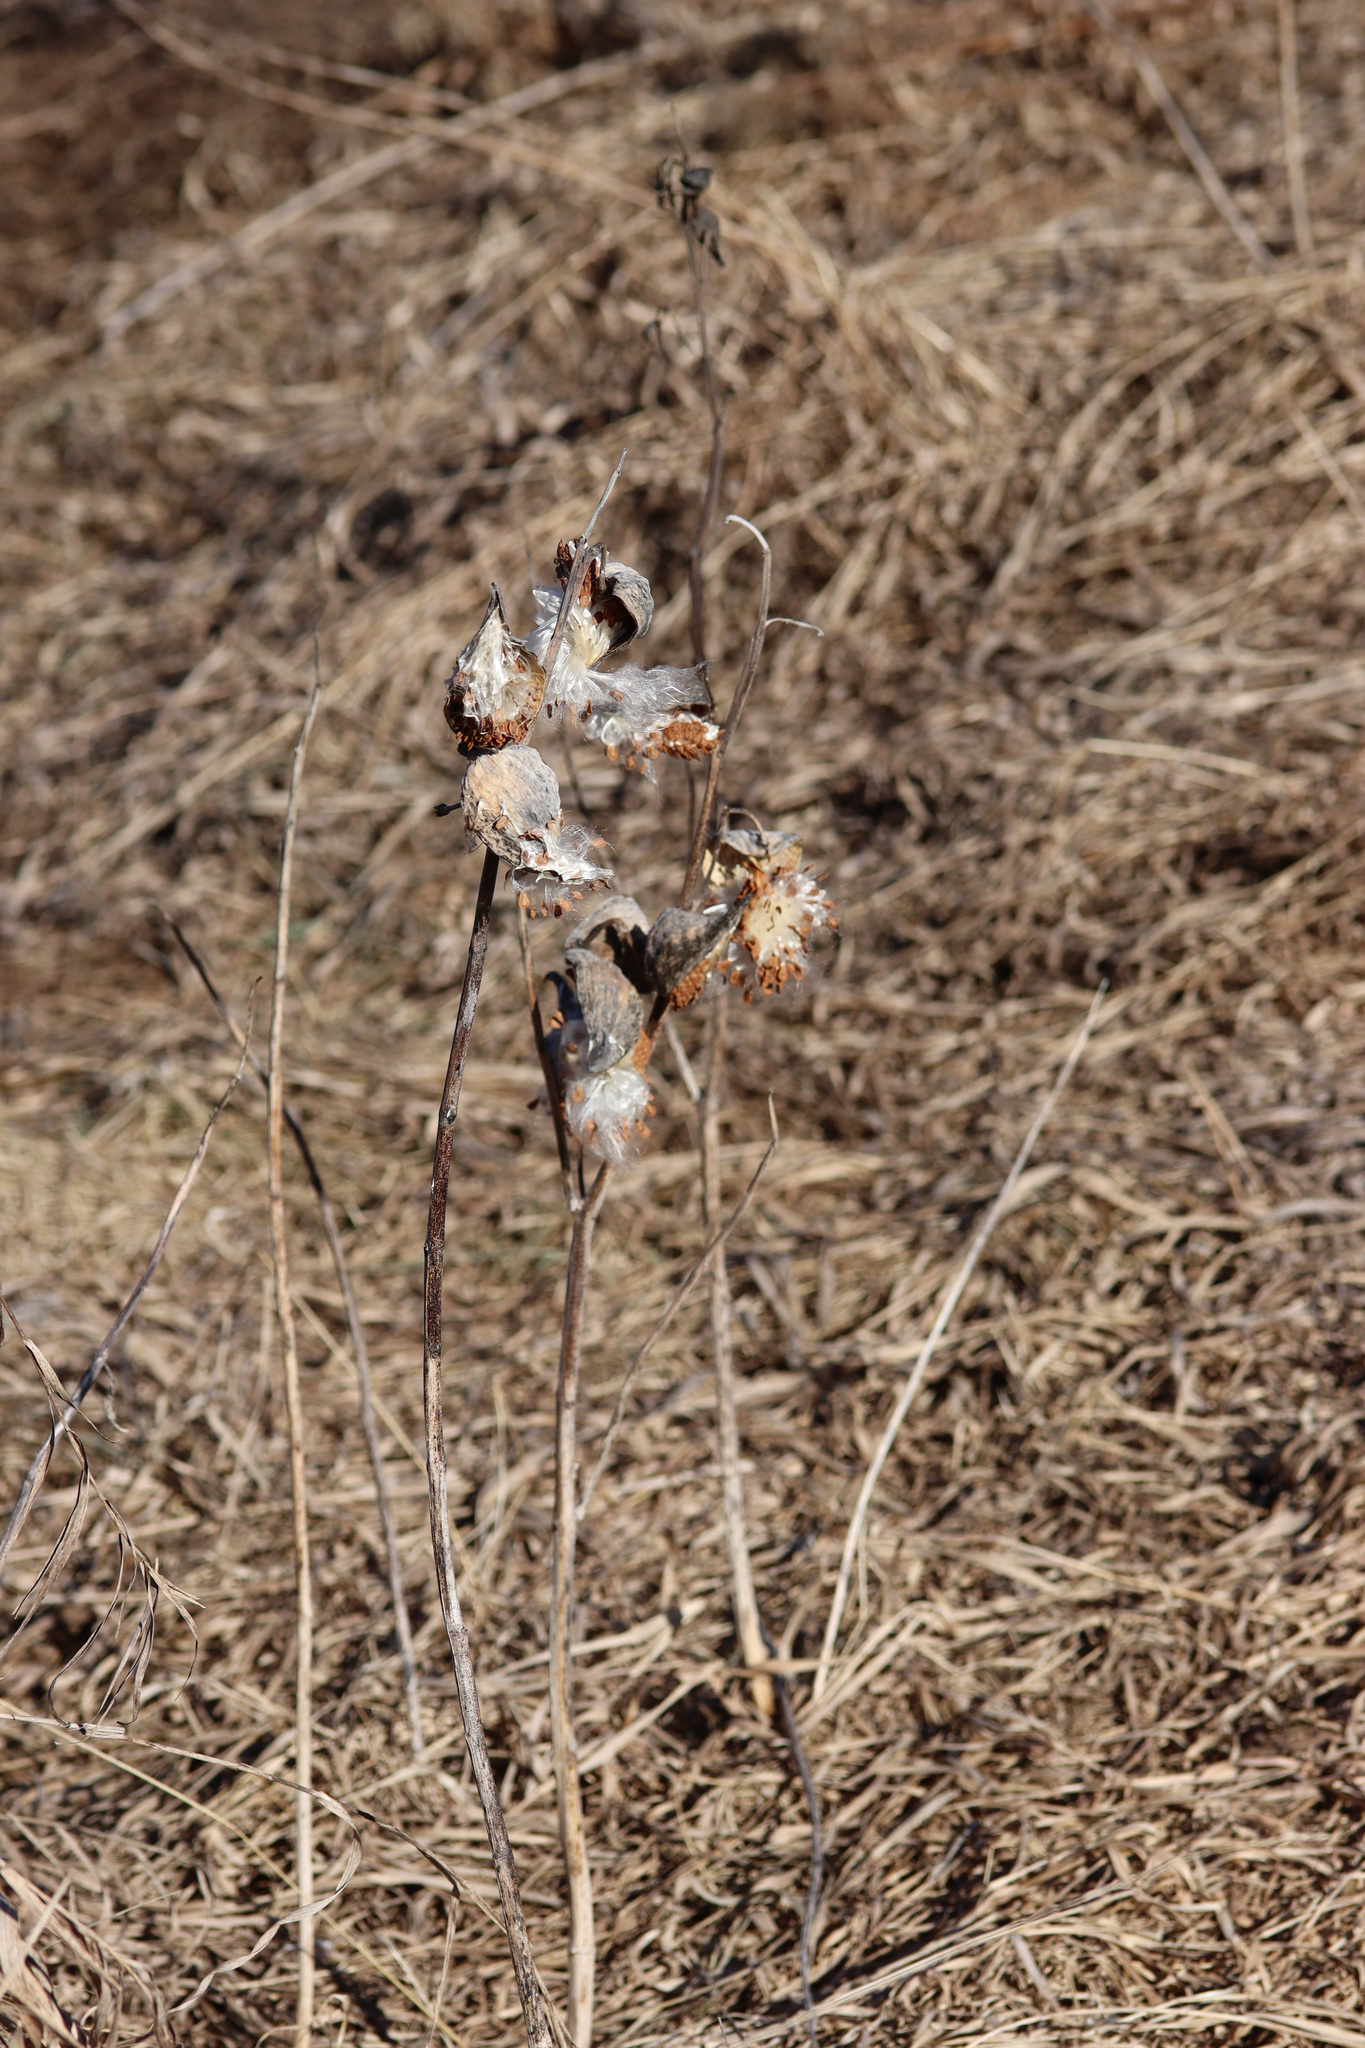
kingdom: Plantae
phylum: Tracheophyta
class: Magnoliopsida
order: Gentianales
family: Apocynaceae
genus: Asclepias
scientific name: Asclepias syriaca
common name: Common milkweed
